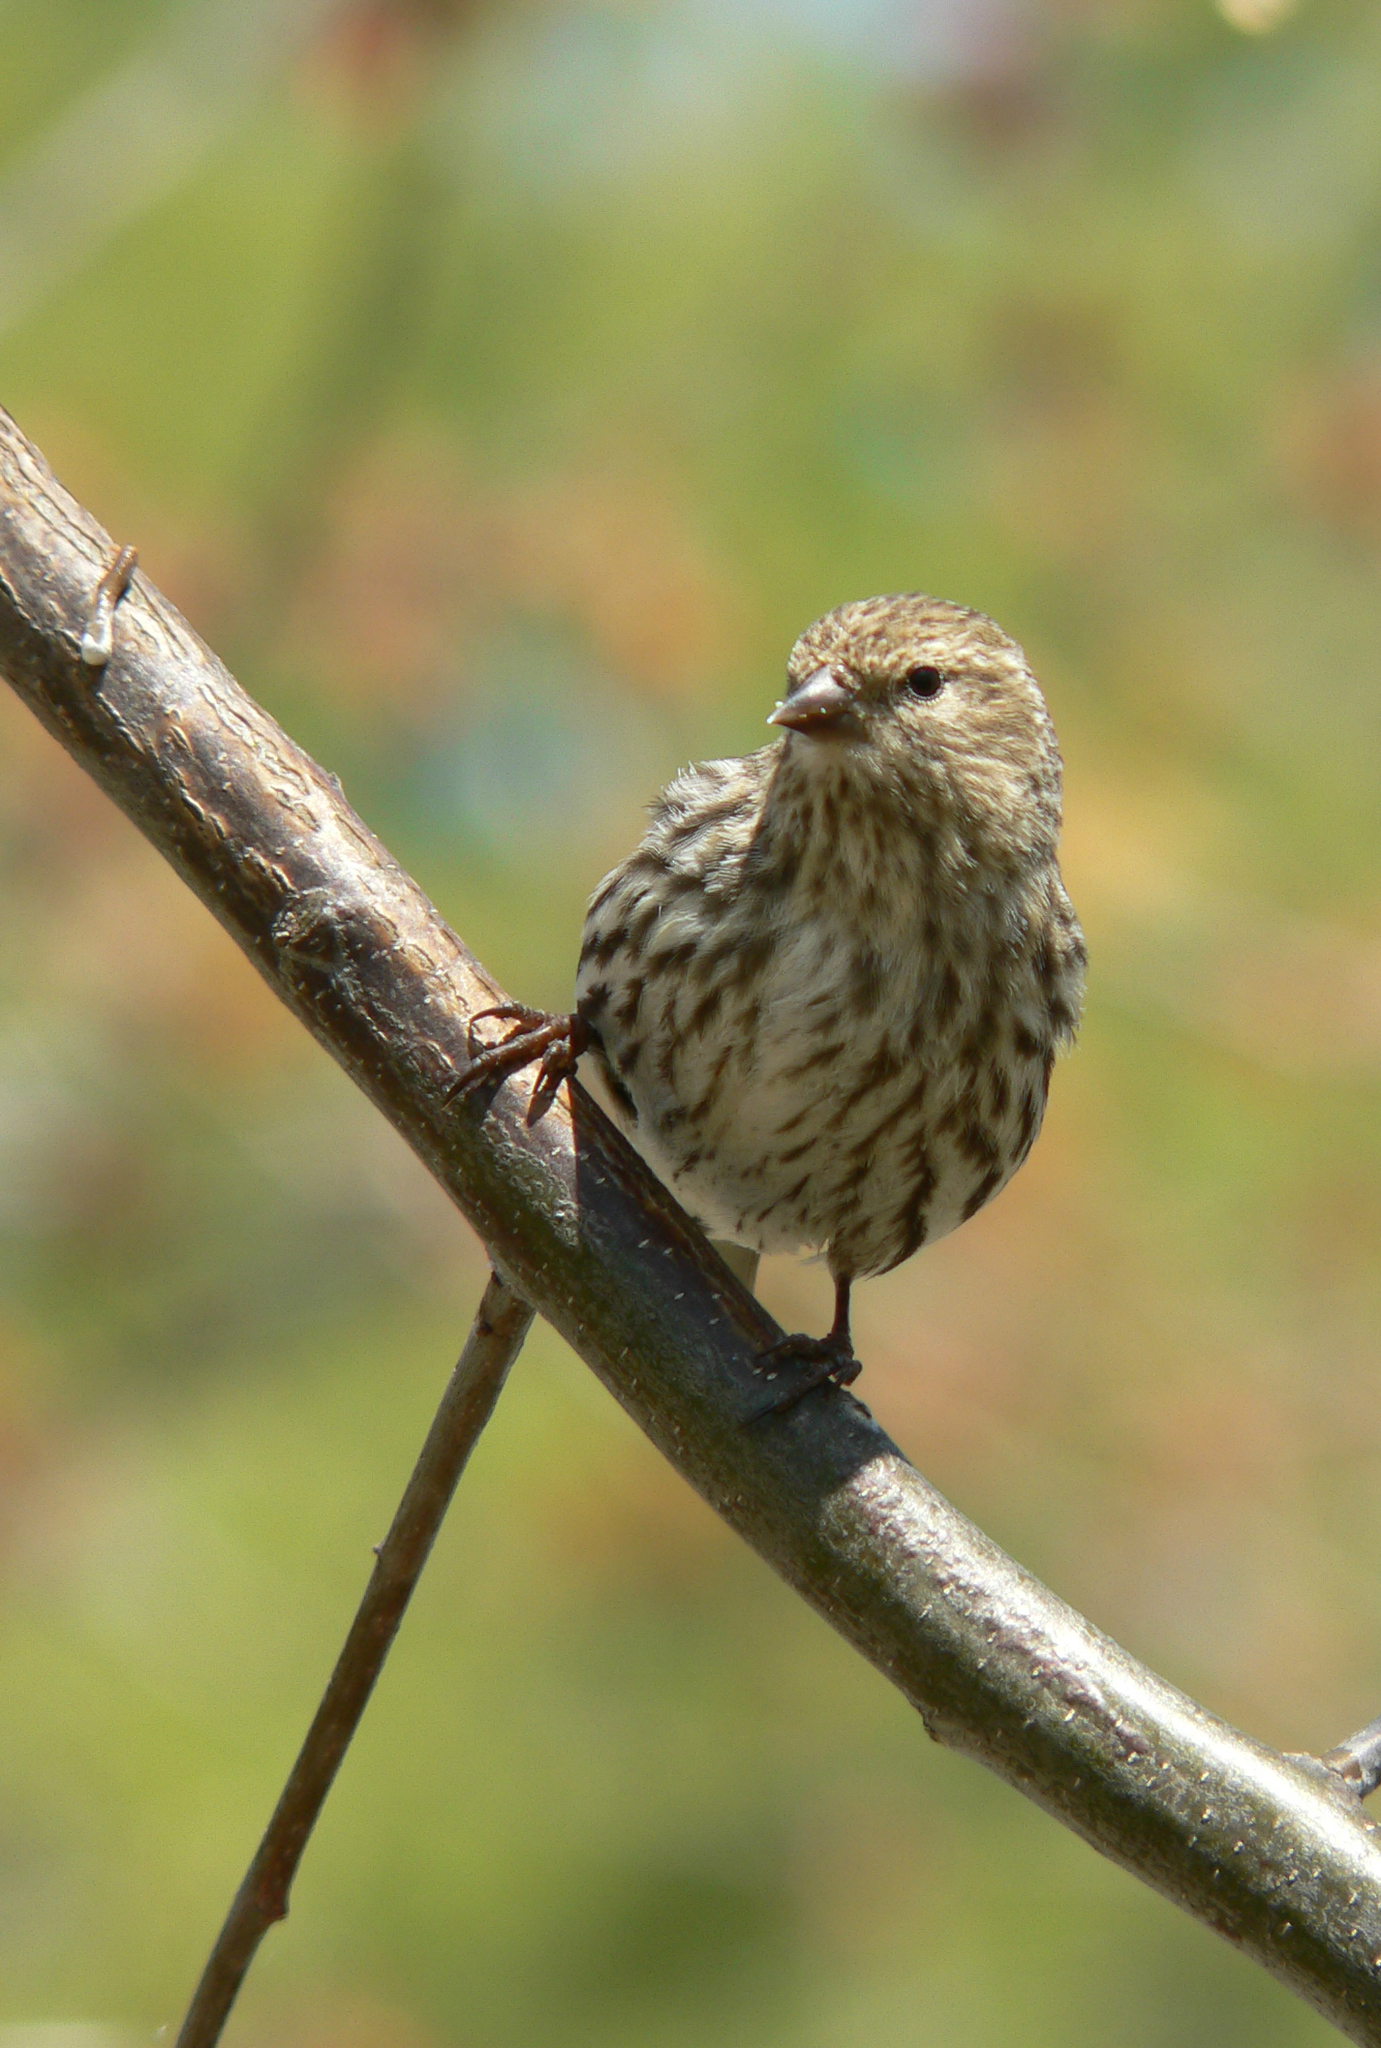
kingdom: Animalia
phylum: Chordata
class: Aves
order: Passeriformes
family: Fringillidae
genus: Spinus
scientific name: Spinus pinus
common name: Pine siskin
